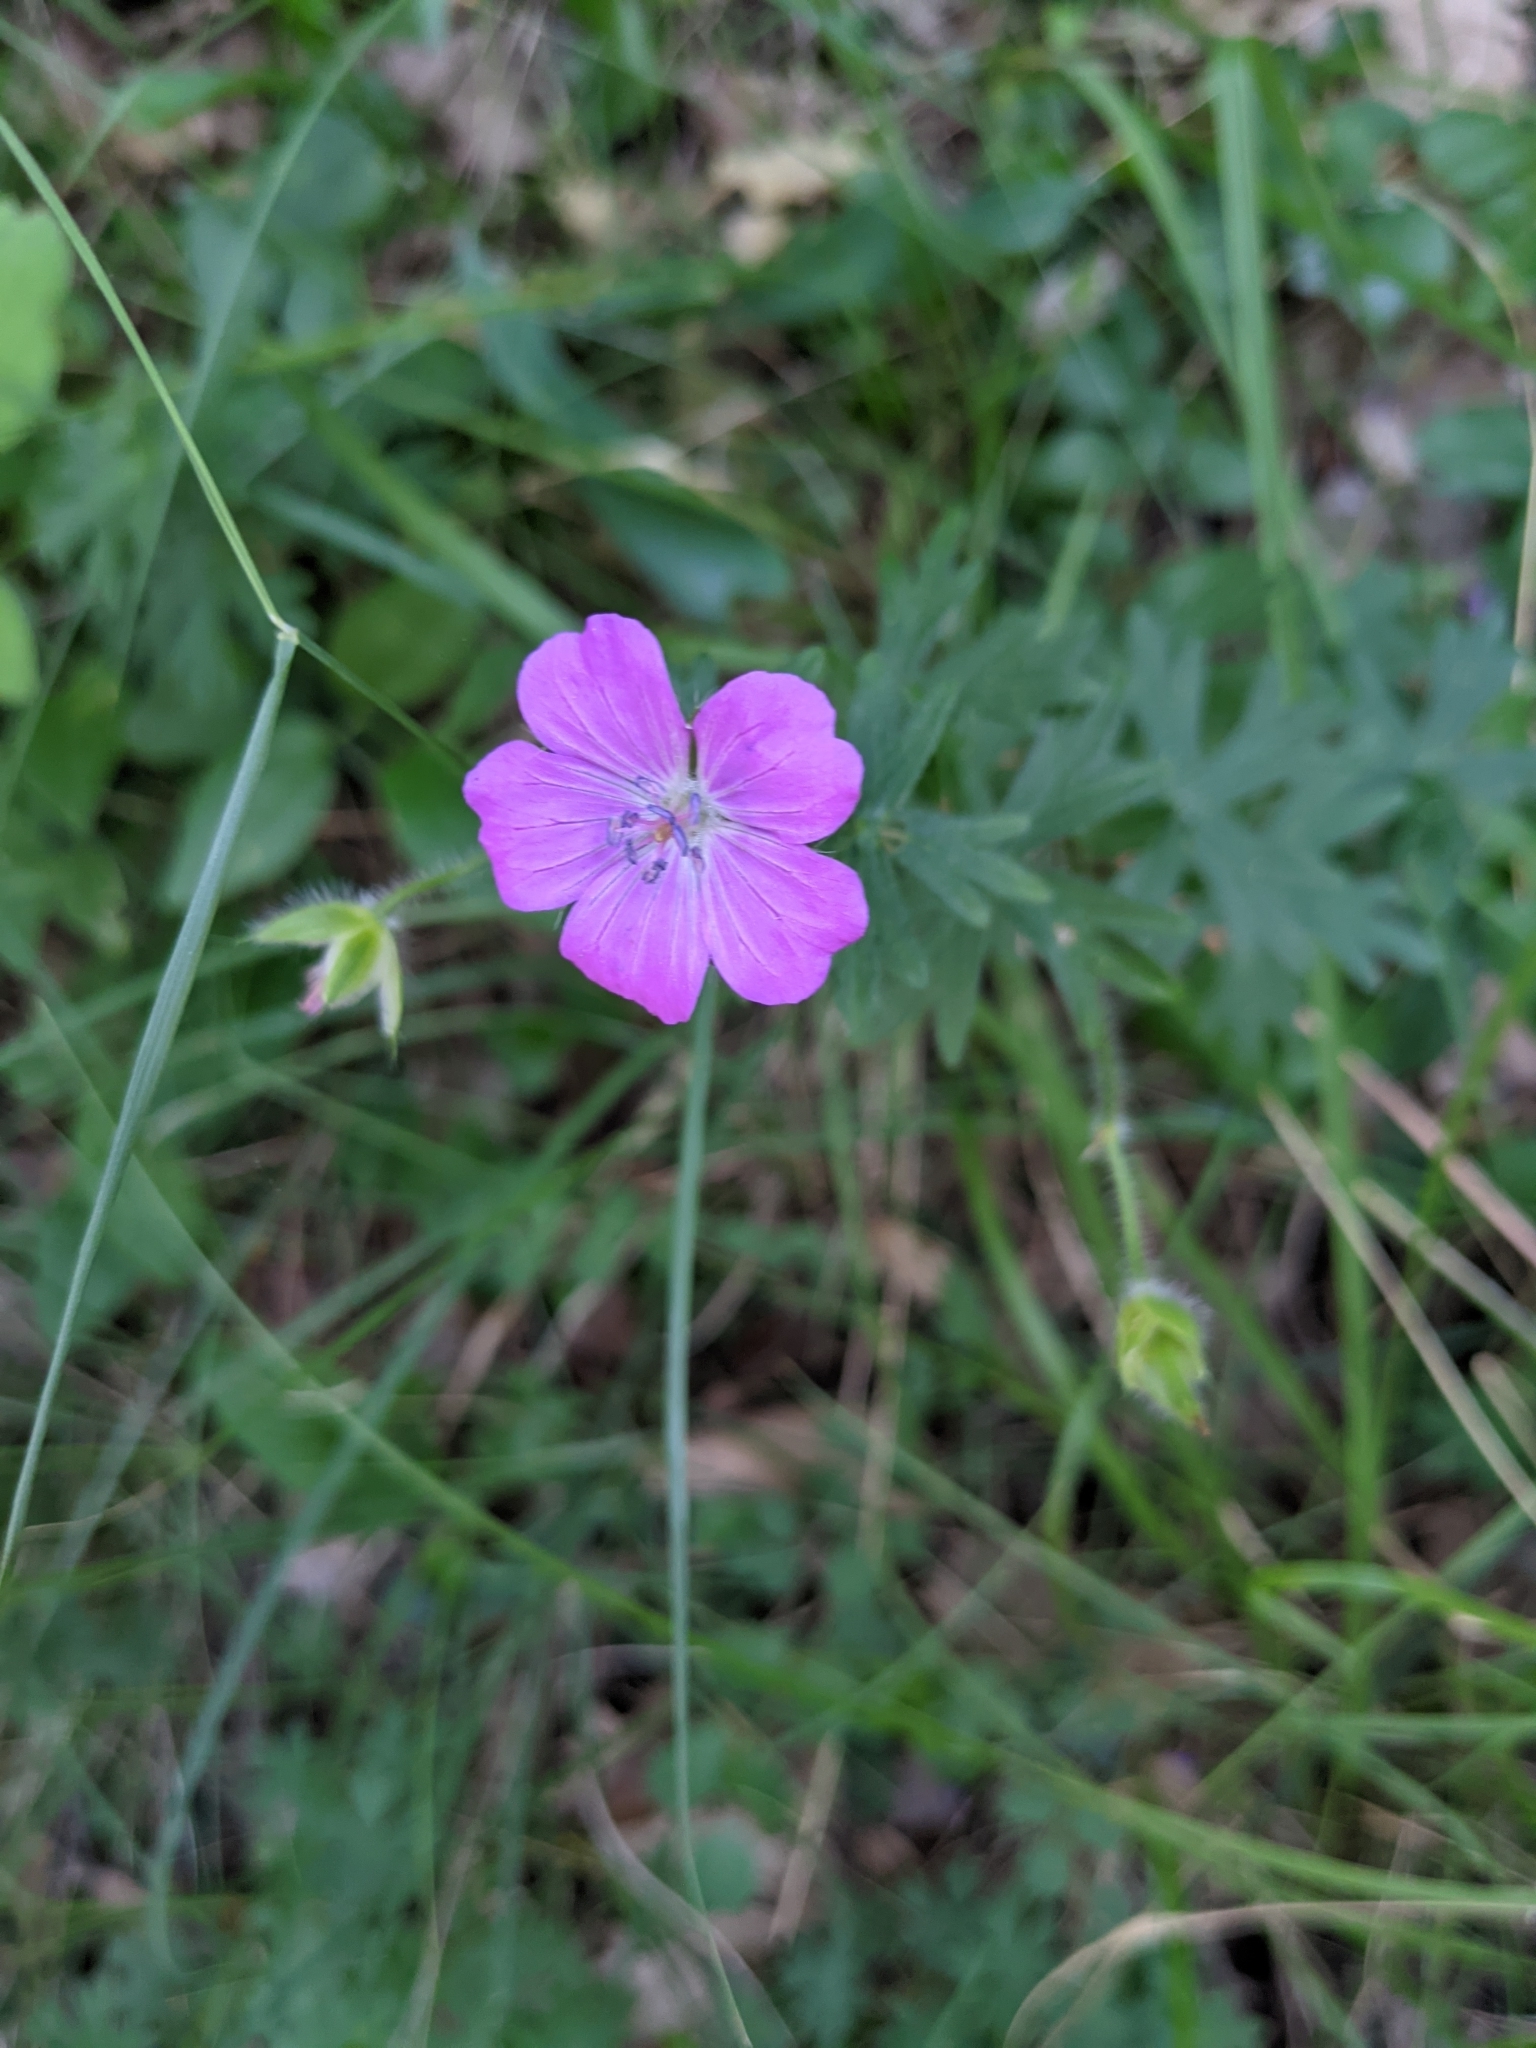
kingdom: Plantae
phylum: Tracheophyta
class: Magnoliopsida
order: Geraniales
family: Geraniaceae
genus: Geranium
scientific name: Geranium sanguineum
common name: Bloody crane's-bill
